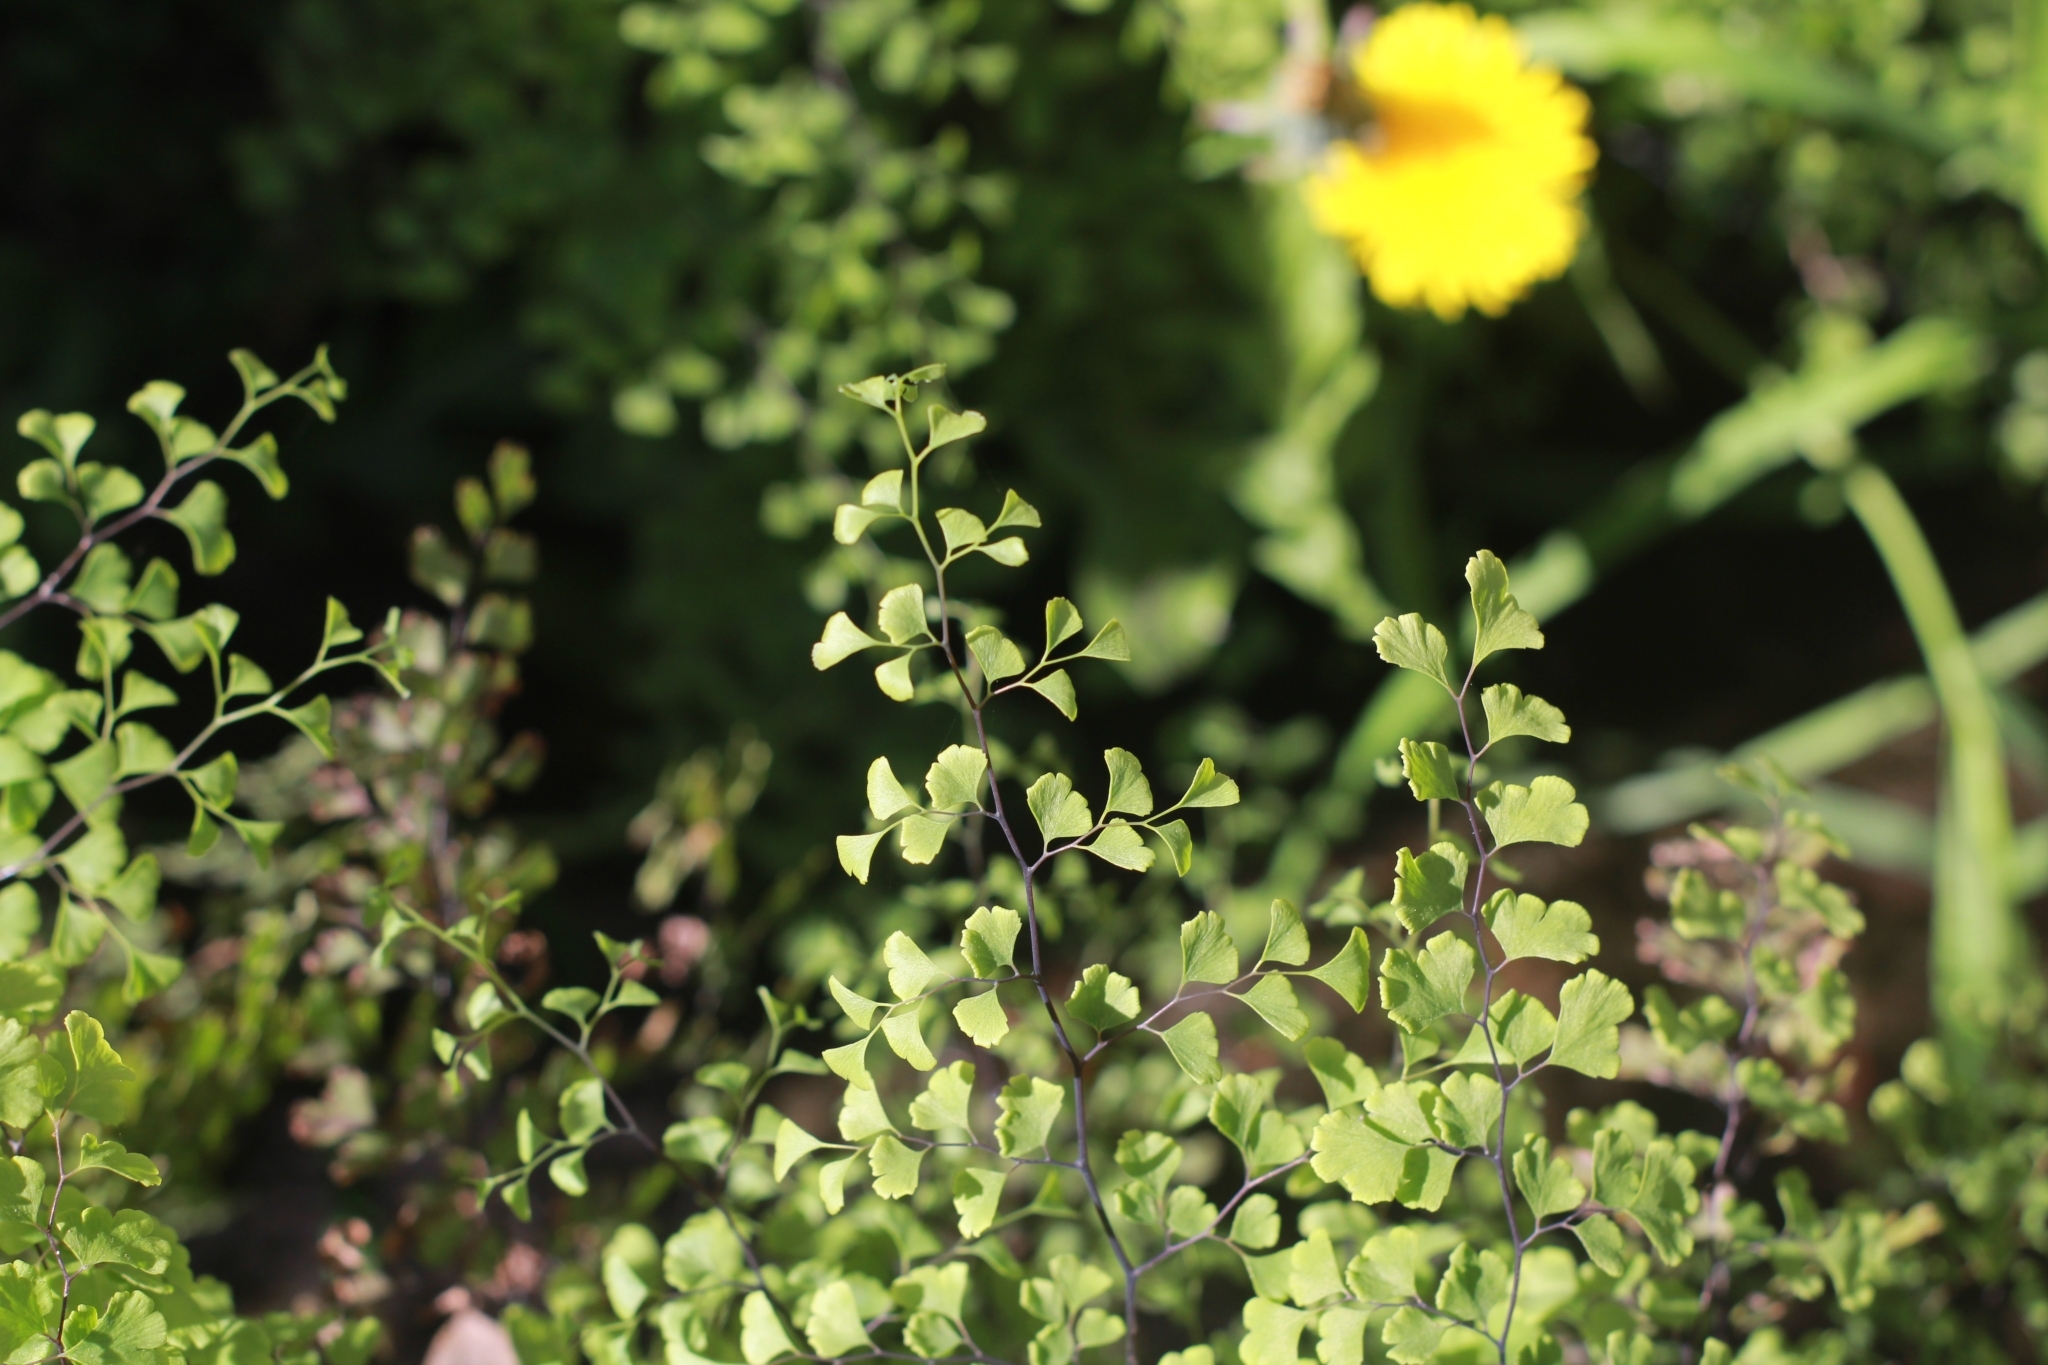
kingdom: Plantae
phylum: Tracheophyta
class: Polypodiopsida
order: Polypodiales
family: Pteridaceae
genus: Adiantum
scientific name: Adiantum capillus-veneris
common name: Maidenhair fern
